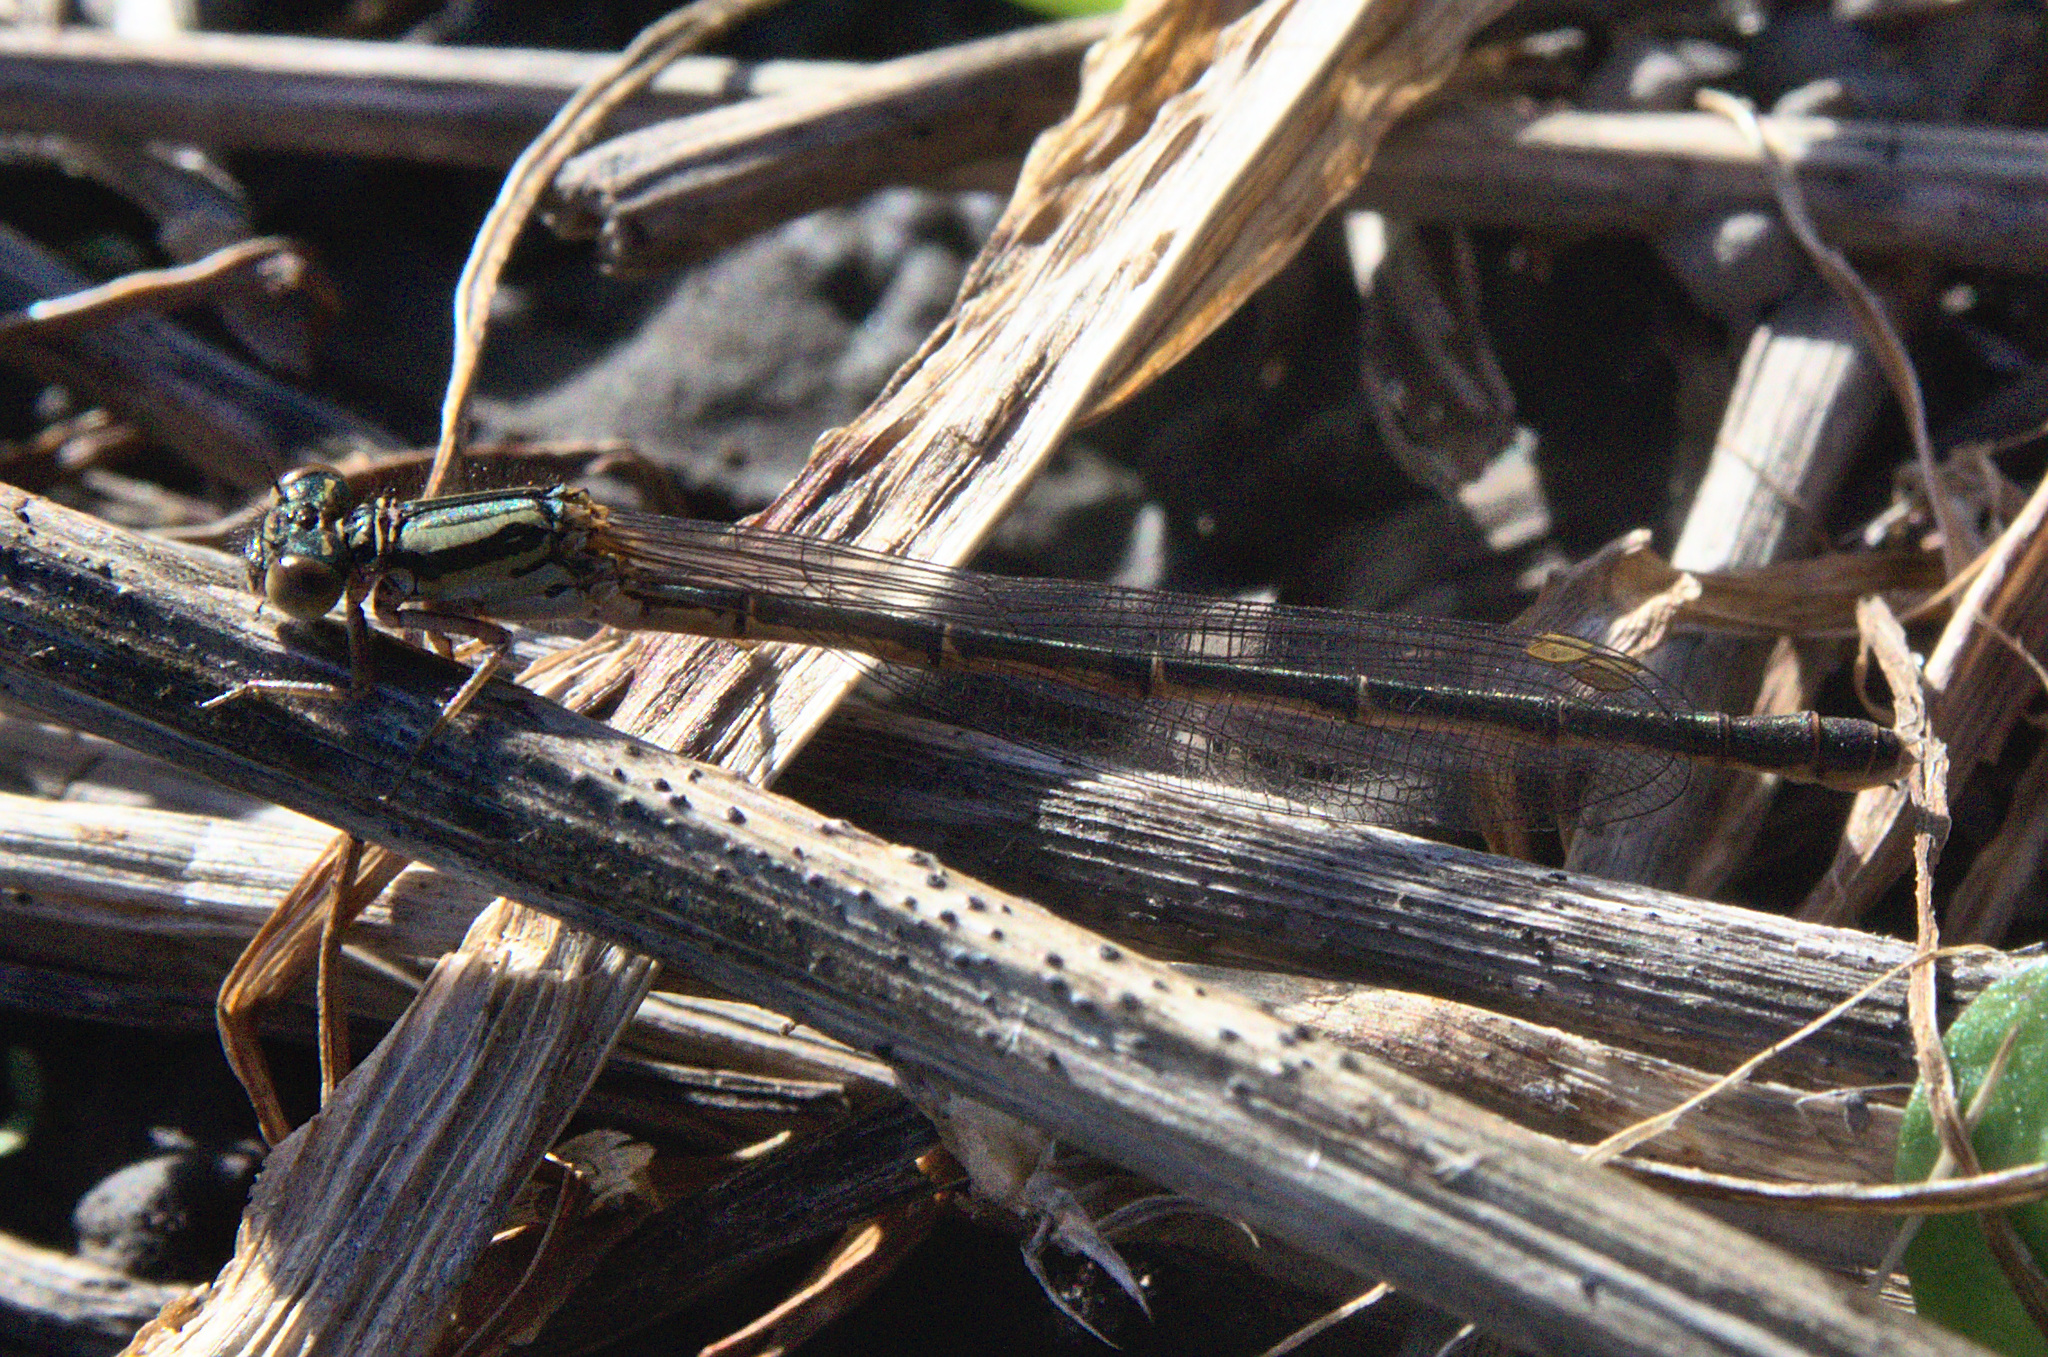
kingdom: Animalia
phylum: Arthropoda
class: Insecta
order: Odonata
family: Coenagrionidae
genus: Xanthocnemis
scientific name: Xanthocnemis zealandica
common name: Common redcoat damselfly
